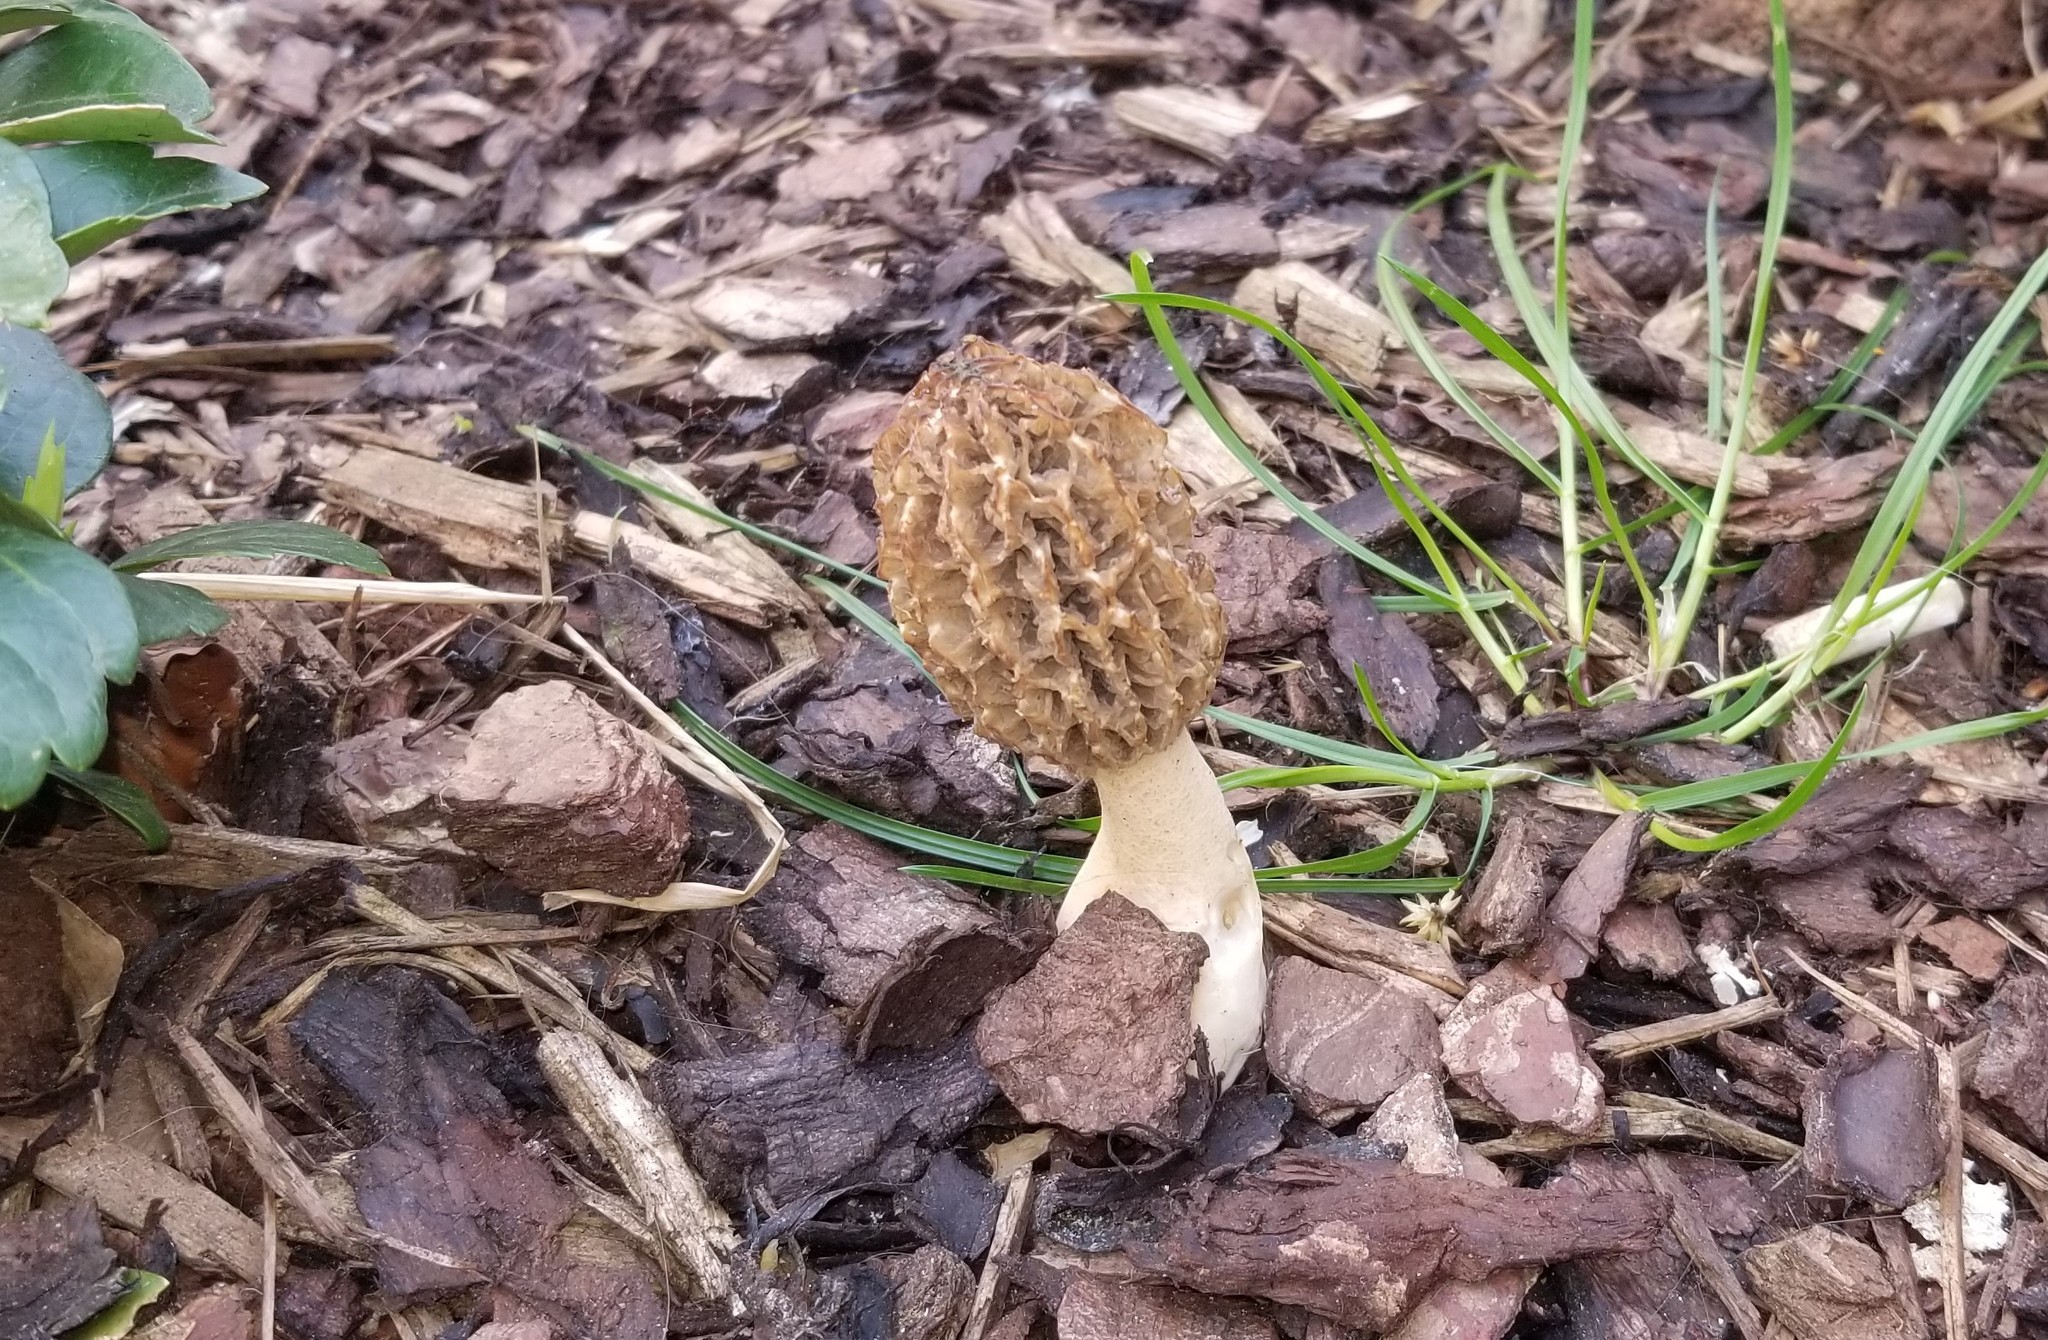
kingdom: Fungi
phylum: Ascomycota
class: Pezizomycetes
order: Pezizales
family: Morchellaceae
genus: Morchella
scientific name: Morchella esculenta
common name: Morel
